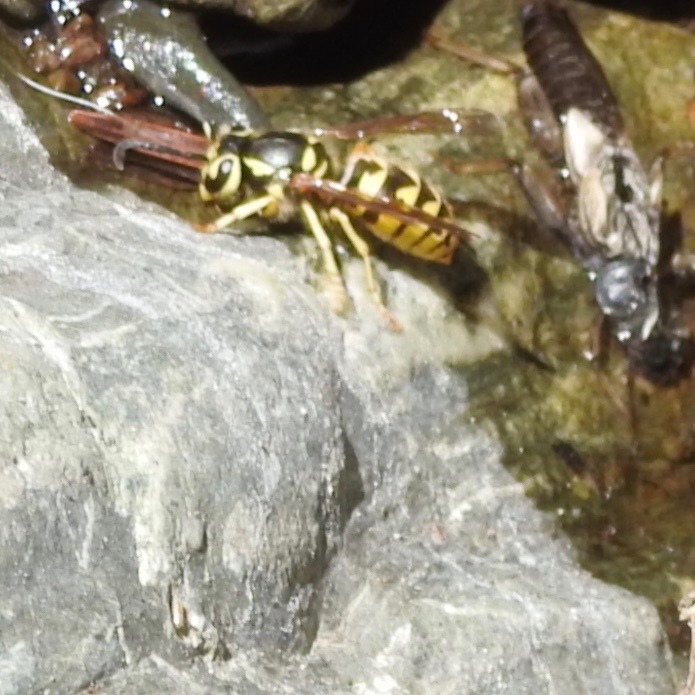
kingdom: Animalia
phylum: Arthropoda
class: Insecta
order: Hymenoptera
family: Vespidae
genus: Vespula
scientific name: Vespula pensylvanica
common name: Western yellowjacket
